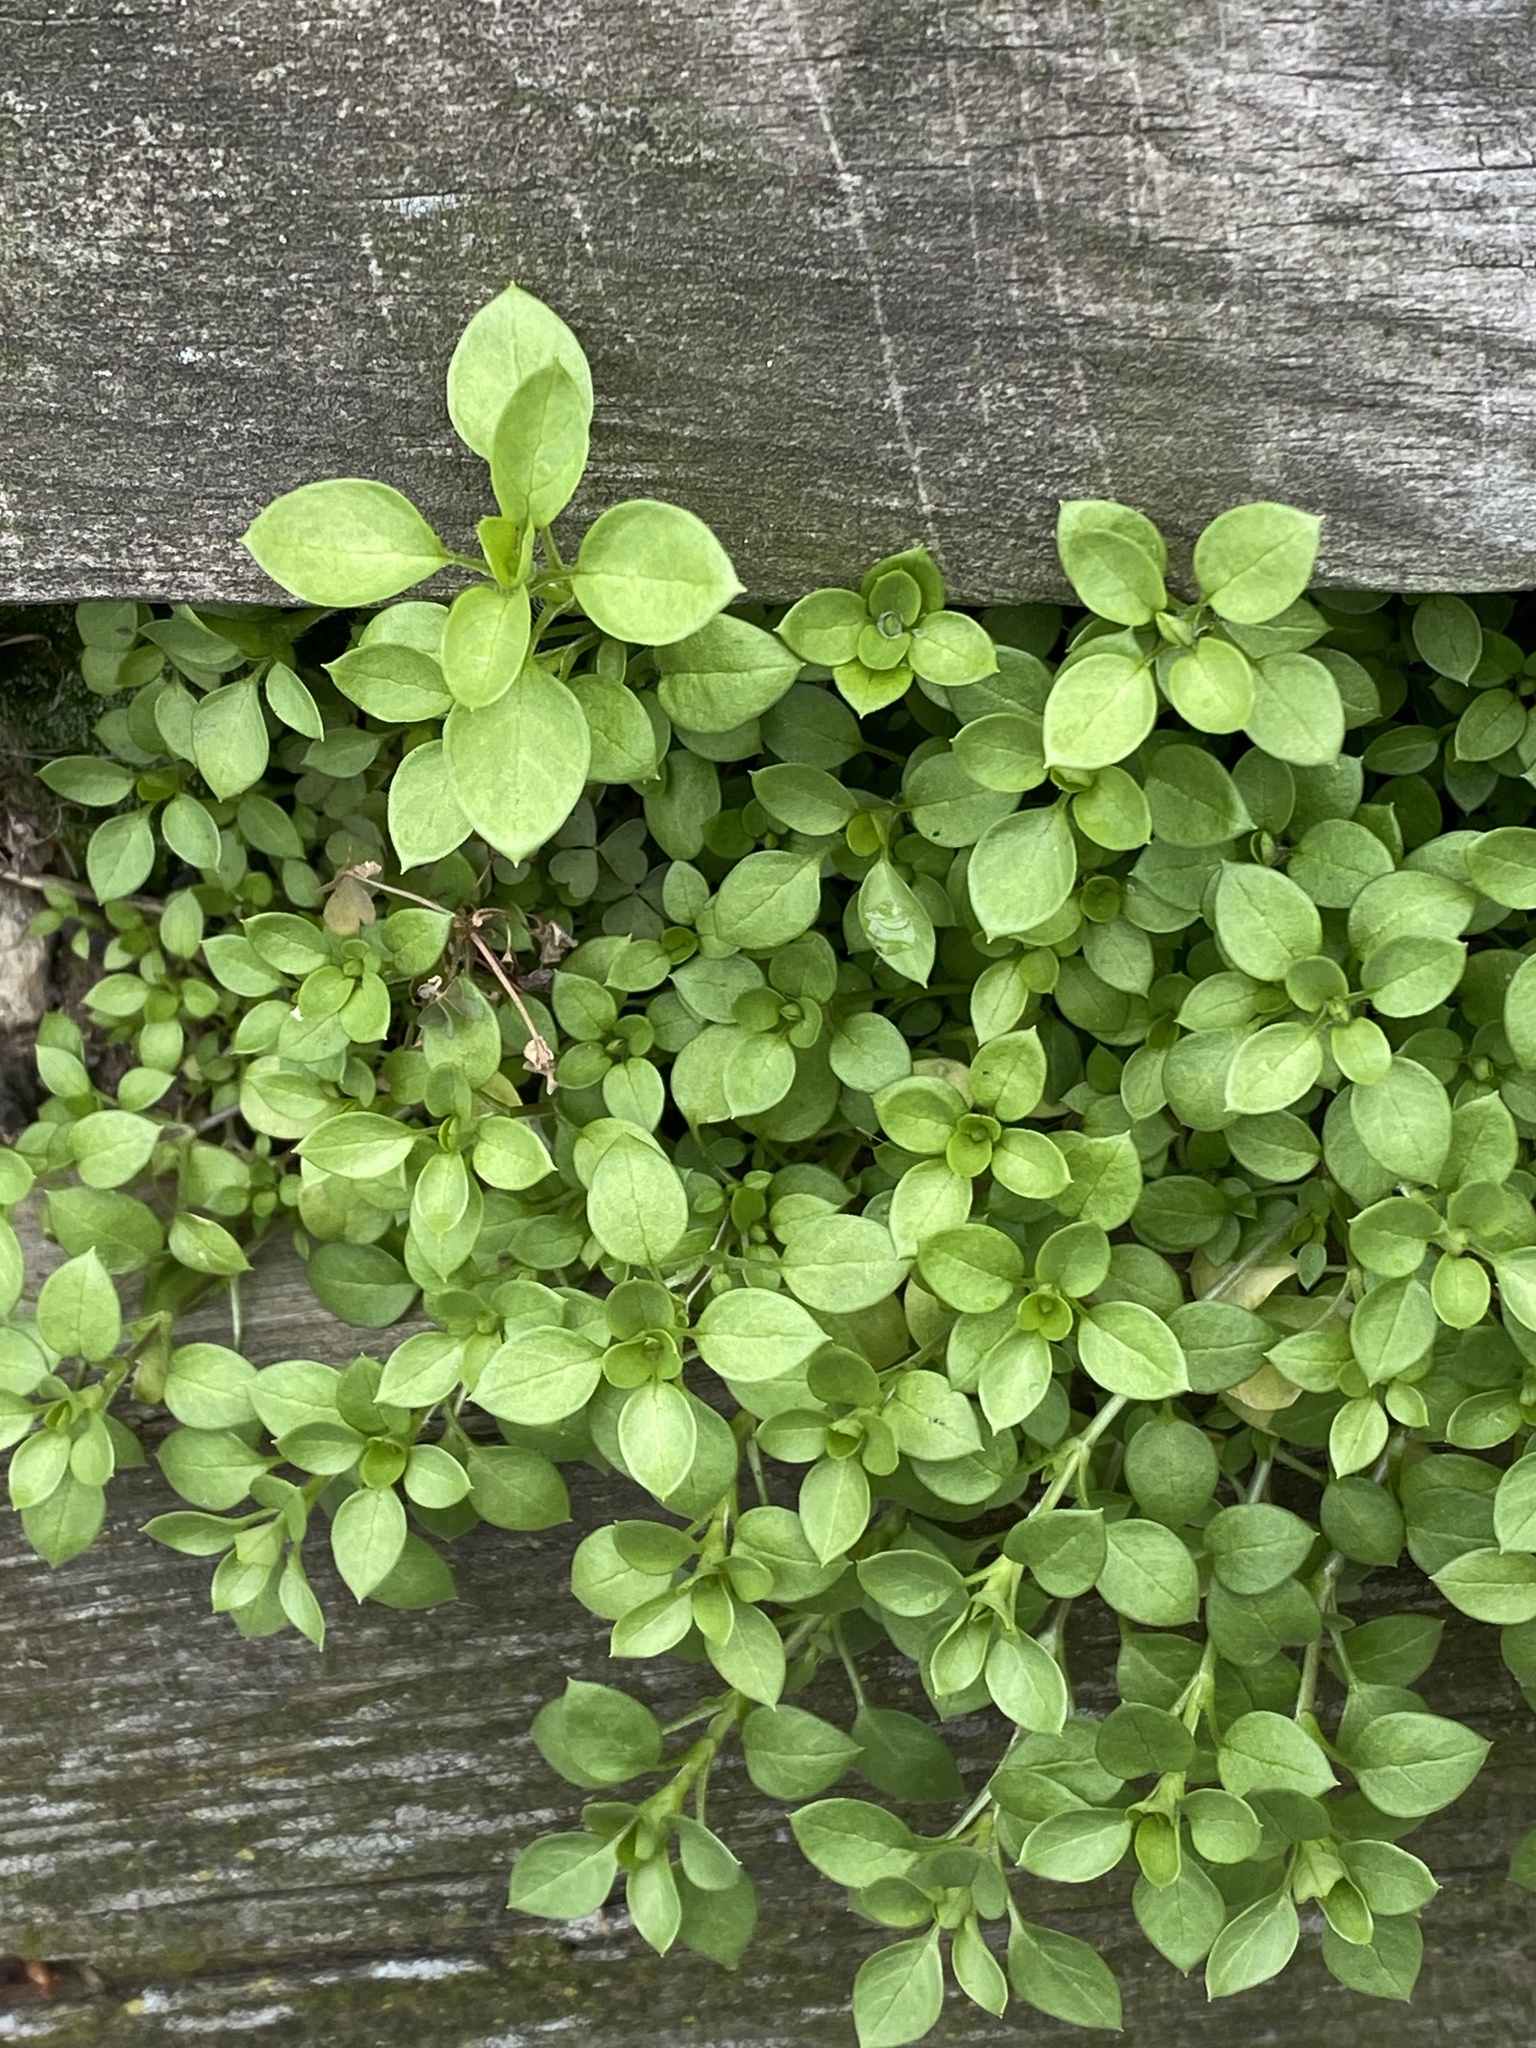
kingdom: Plantae
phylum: Tracheophyta
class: Magnoliopsida
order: Caryophyllales
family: Caryophyllaceae
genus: Stellaria
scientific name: Stellaria media
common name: Common chickweed
